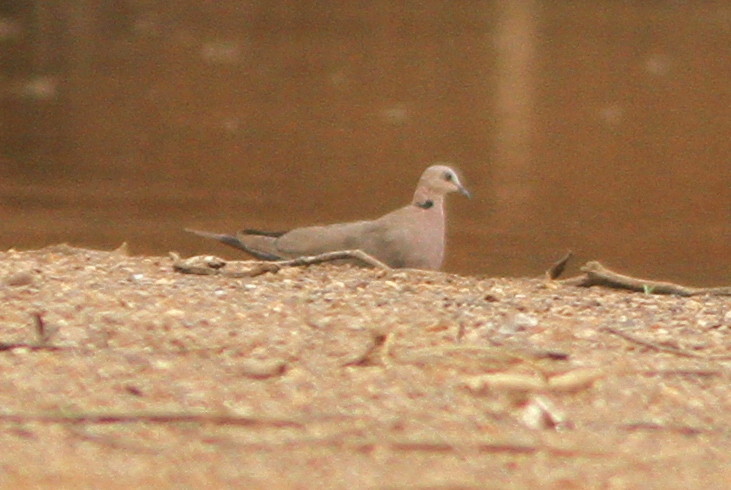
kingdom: Animalia
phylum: Chordata
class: Aves
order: Columbiformes
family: Columbidae
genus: Streptopelia
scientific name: Streptopelia semitorquata
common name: Red-eyed dove
